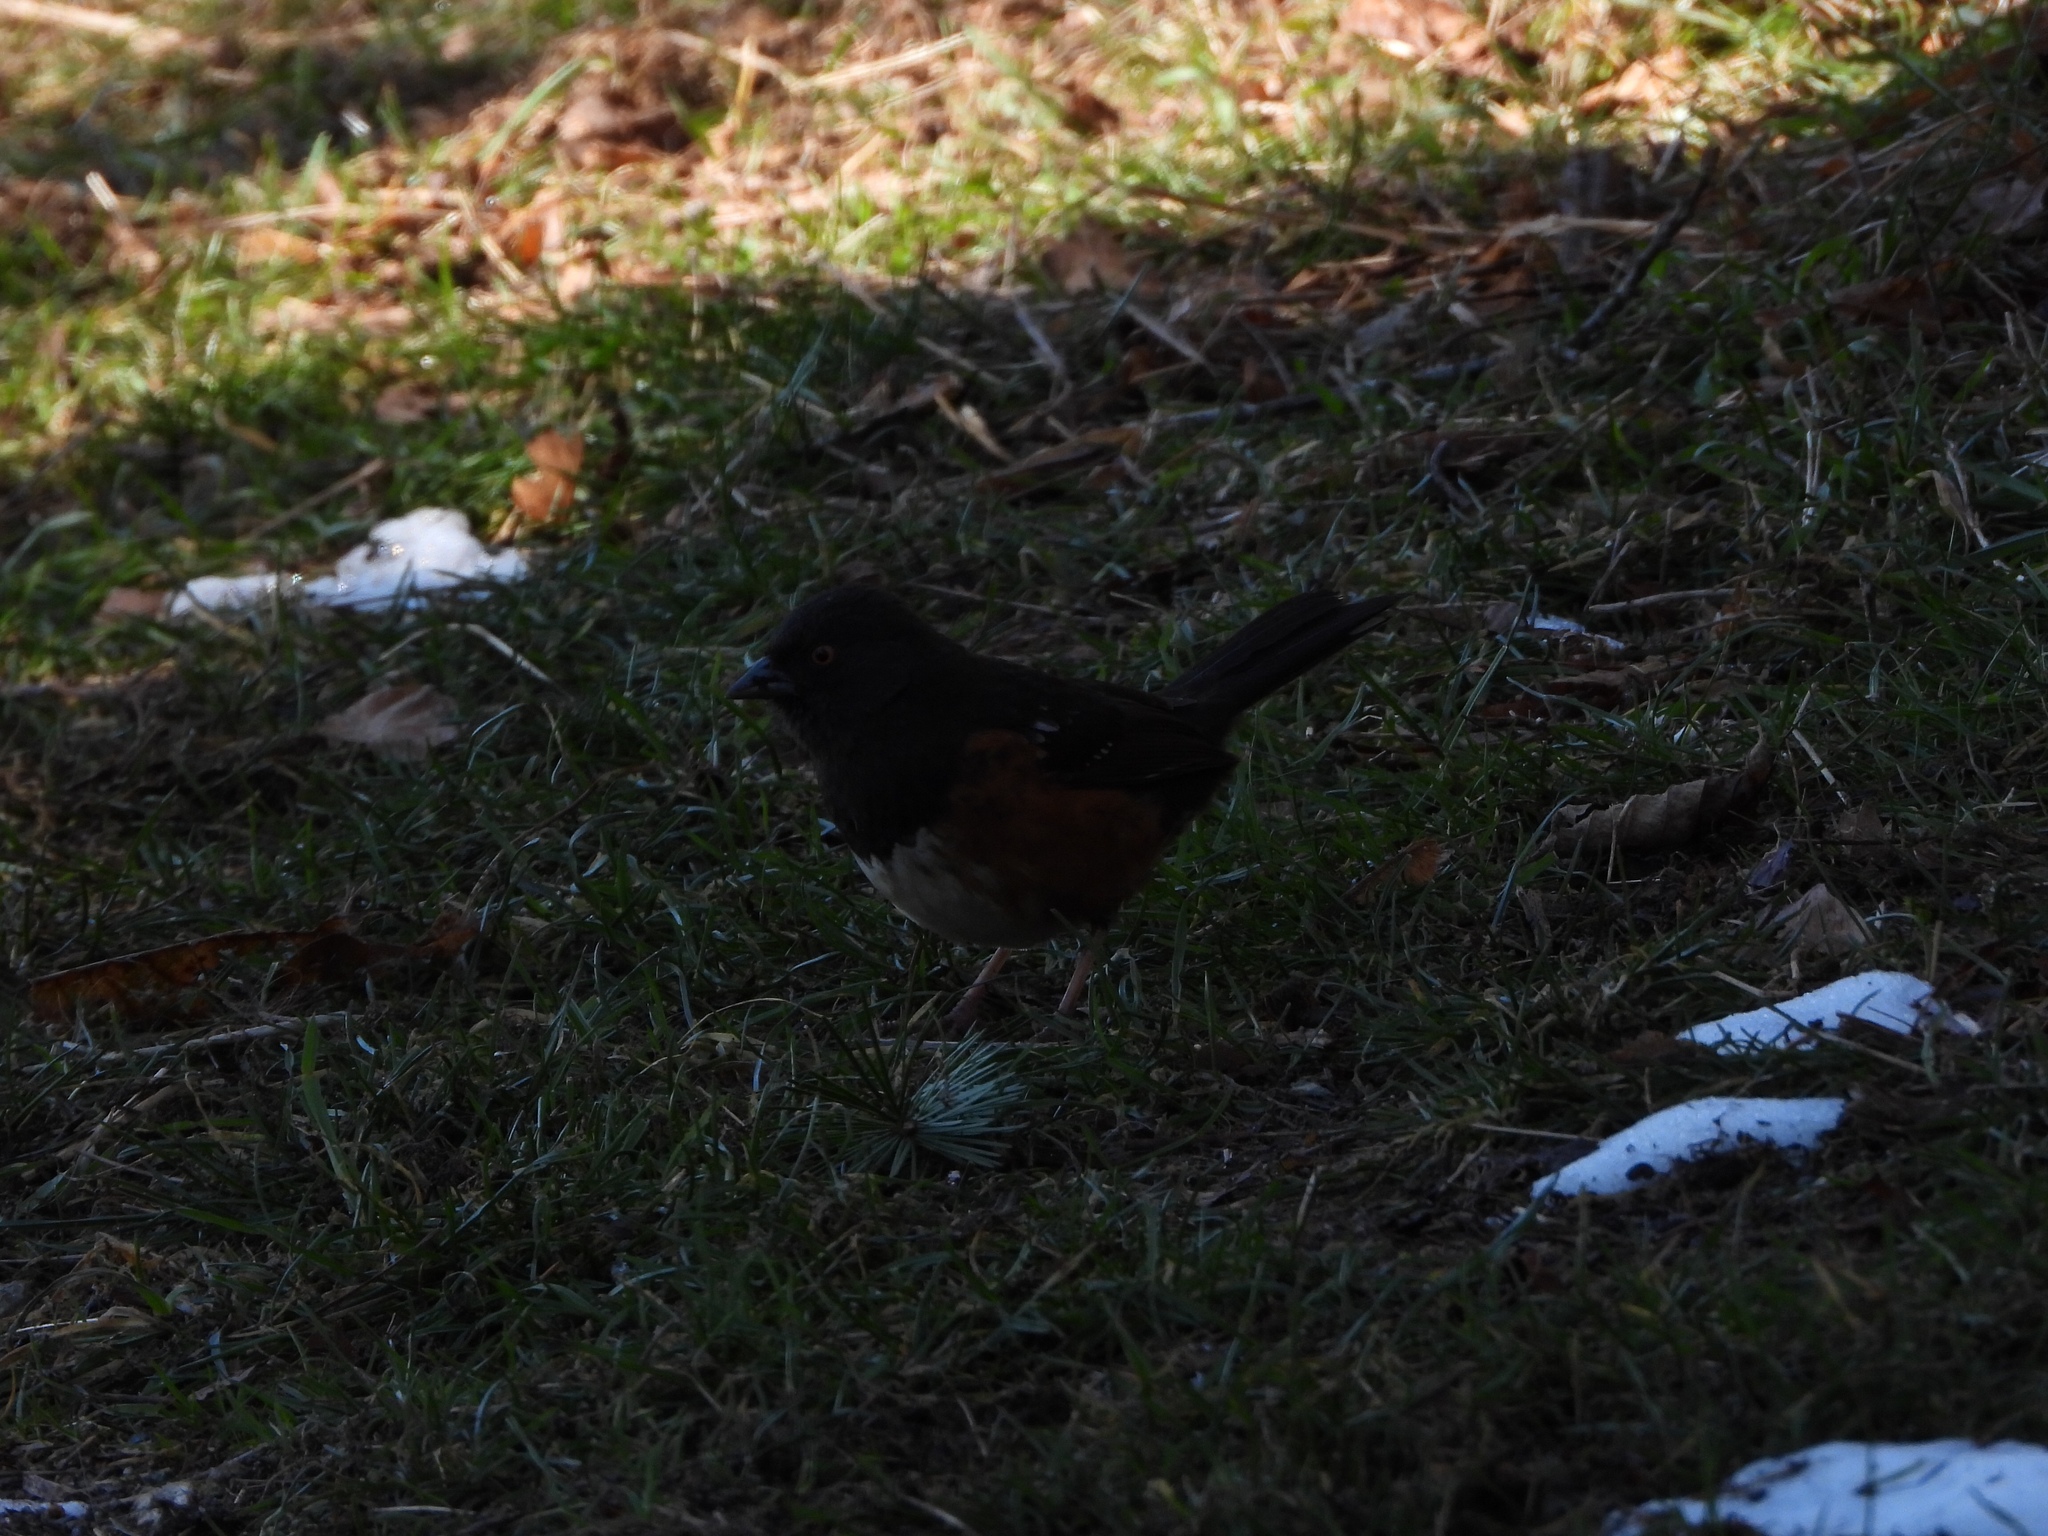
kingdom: Animalia
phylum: Chordata
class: Aves
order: Passeriformes
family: Passerellidae
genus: Pipilo
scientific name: Pipilo maculatus
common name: Spotted towhee
